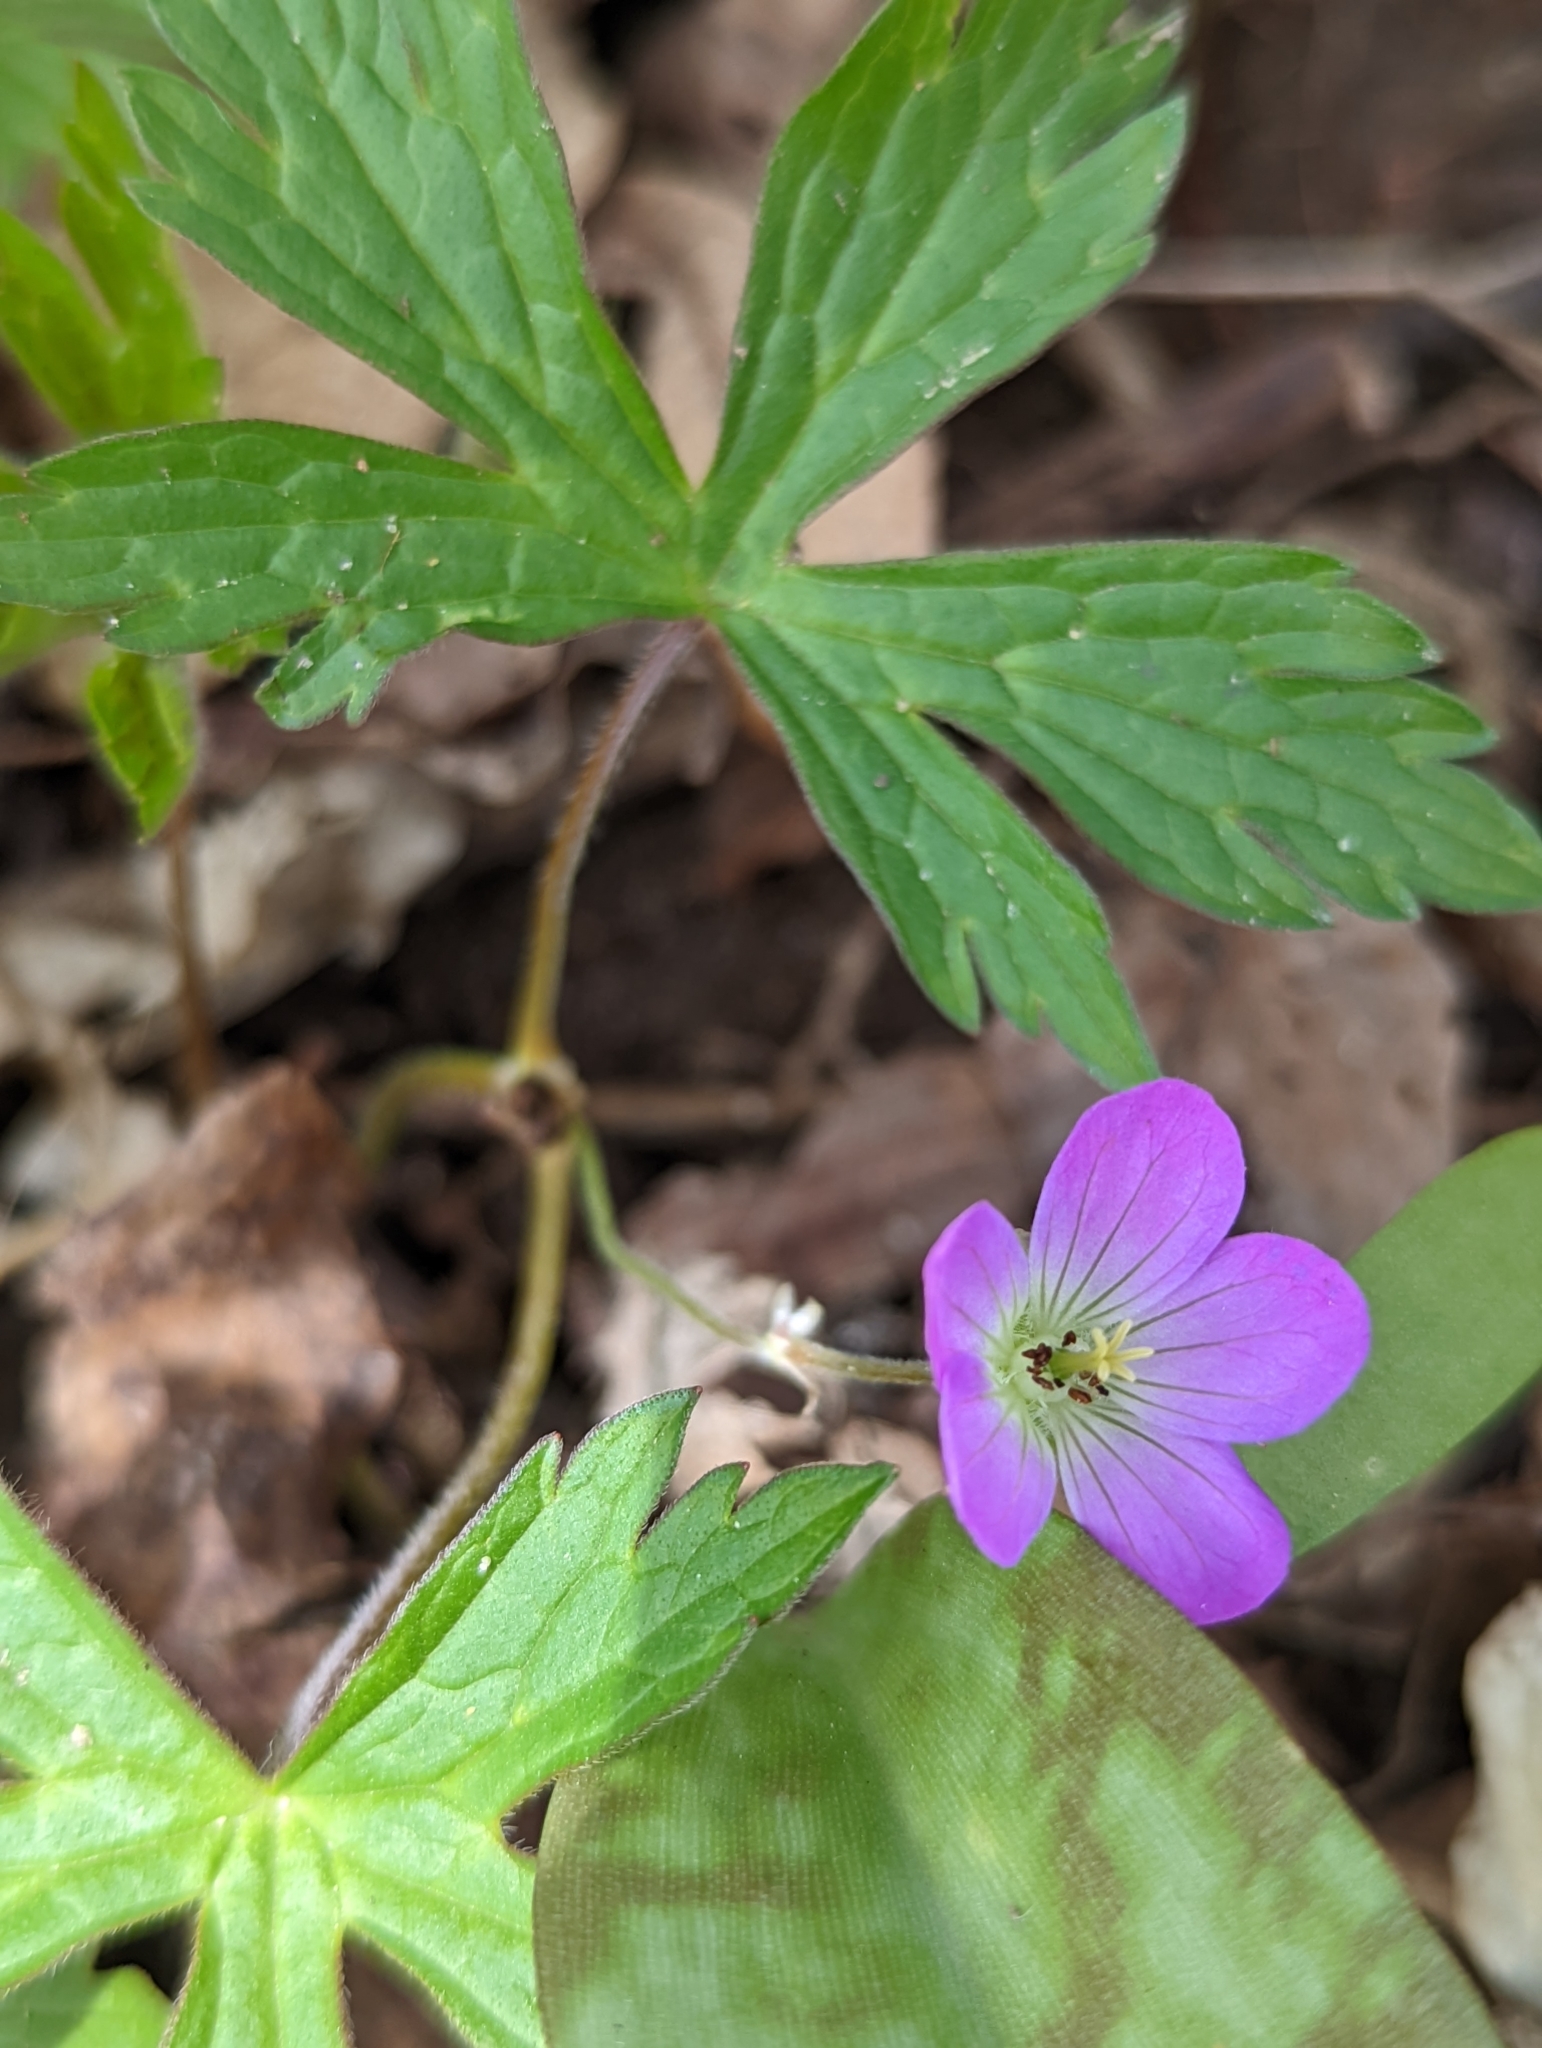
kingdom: Plantae
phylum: Tracheophyta
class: Magnoliopsida
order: Geraniales
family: Geraniaceae
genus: Geranium
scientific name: Geranium maculatum
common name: Spotted geranium
